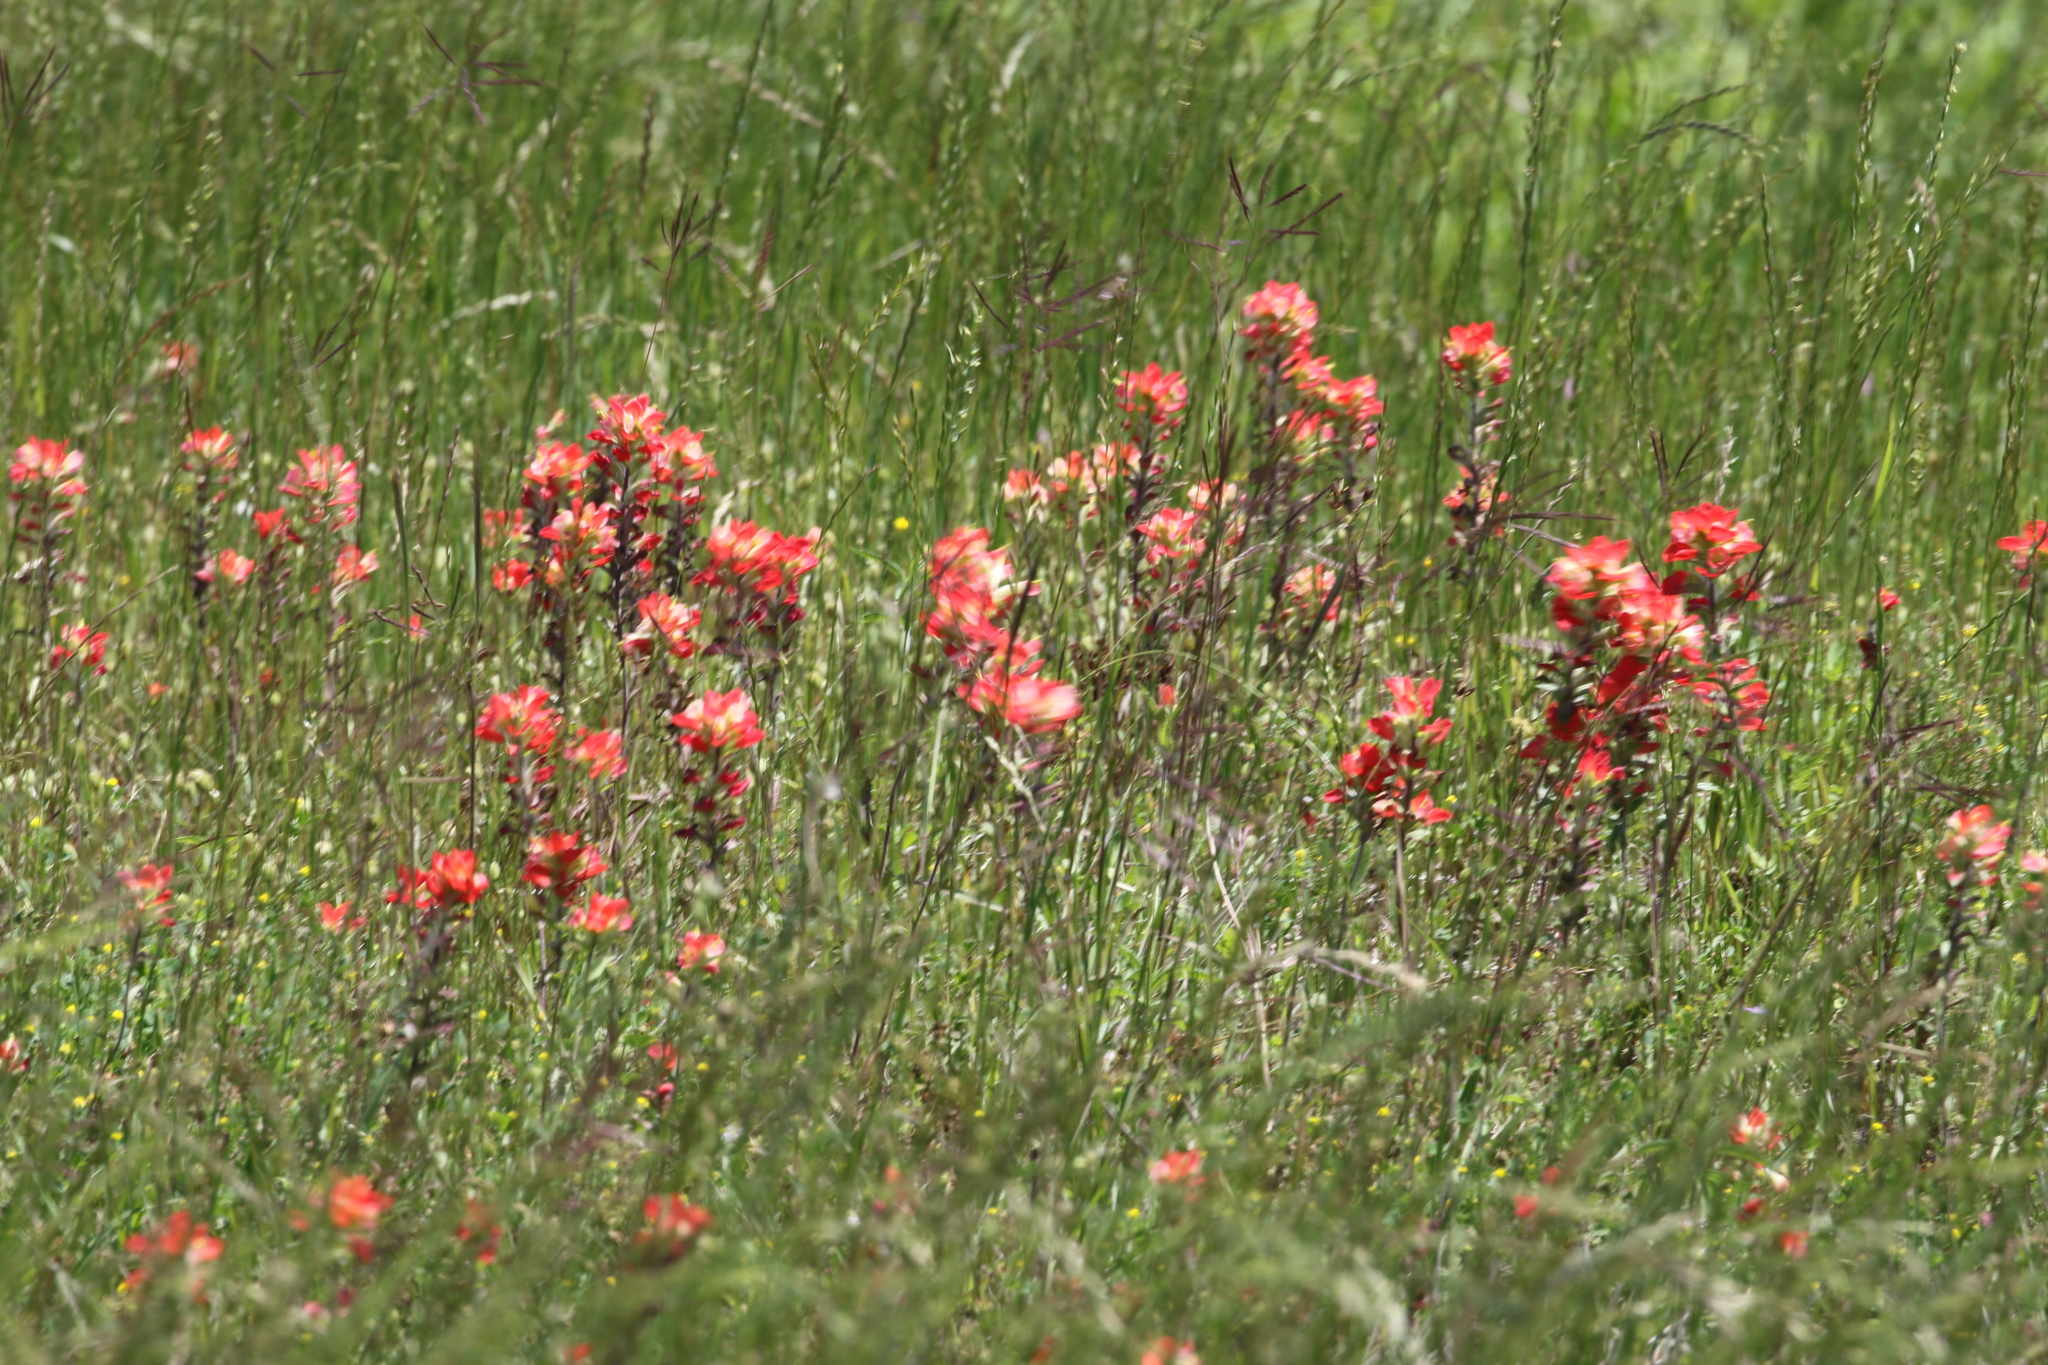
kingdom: Plantae
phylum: Tracheophyta
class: Magnoliopsida
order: Lamiales
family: Orobanchaceae
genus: Castilleja
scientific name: Castilleja indivisa
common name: Texas paintbrush
